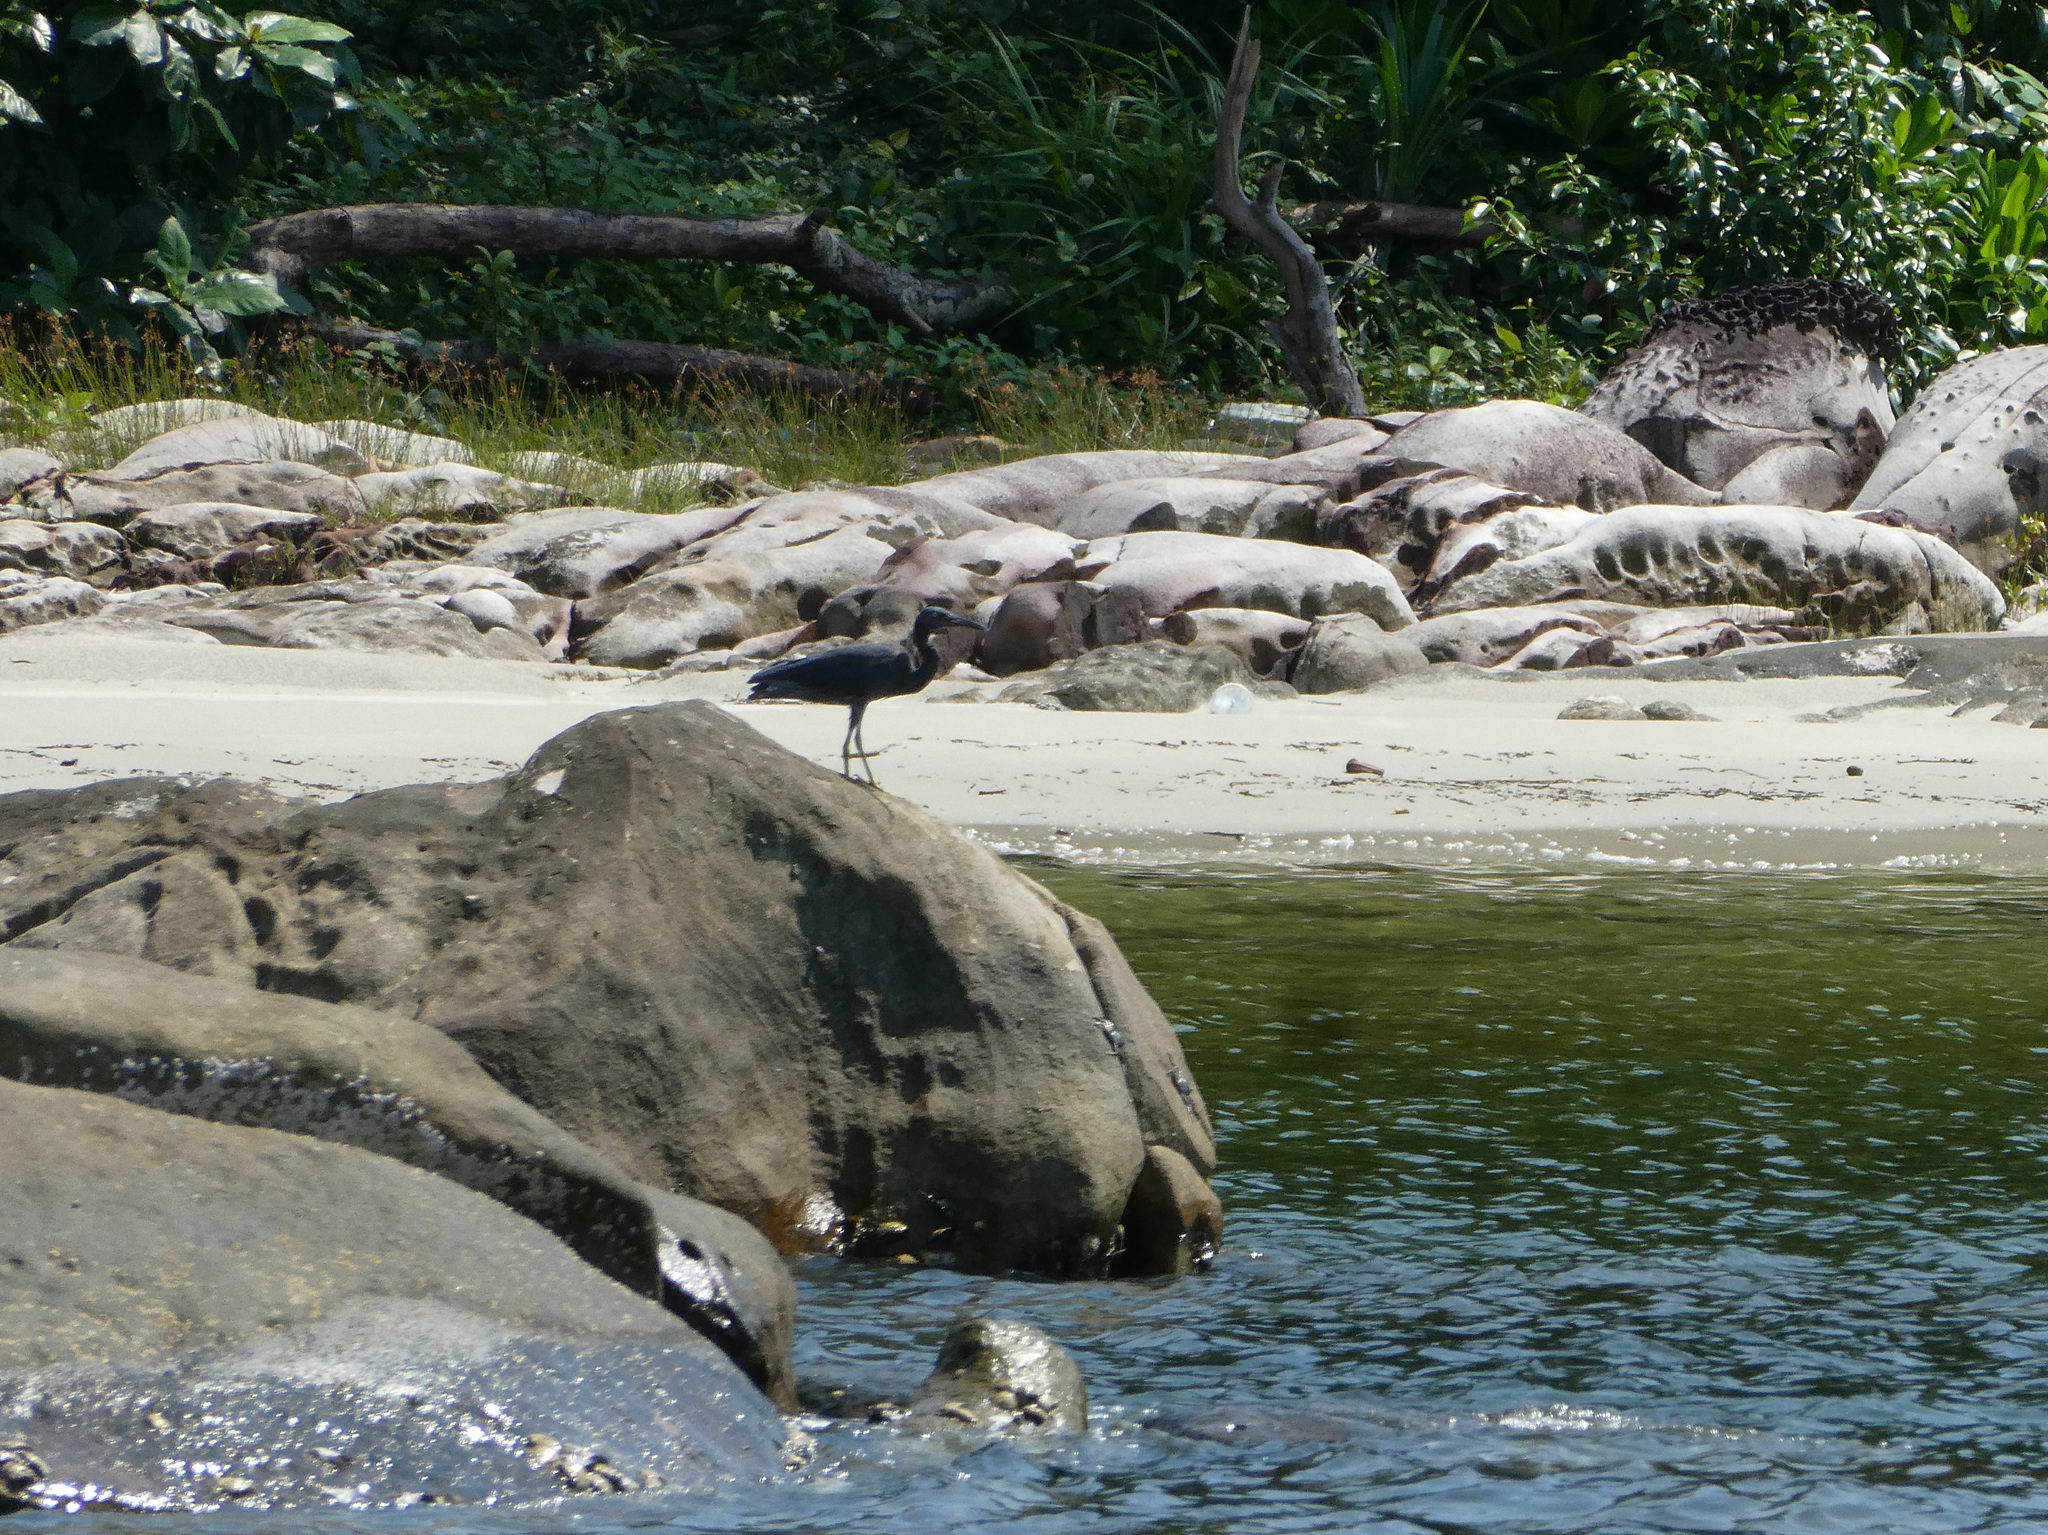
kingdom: Animalia
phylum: Chordata
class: Aves
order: Pelecaniformes
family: Ardeidae
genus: Egretta
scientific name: Egretta sacra
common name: Pacific reef heron
